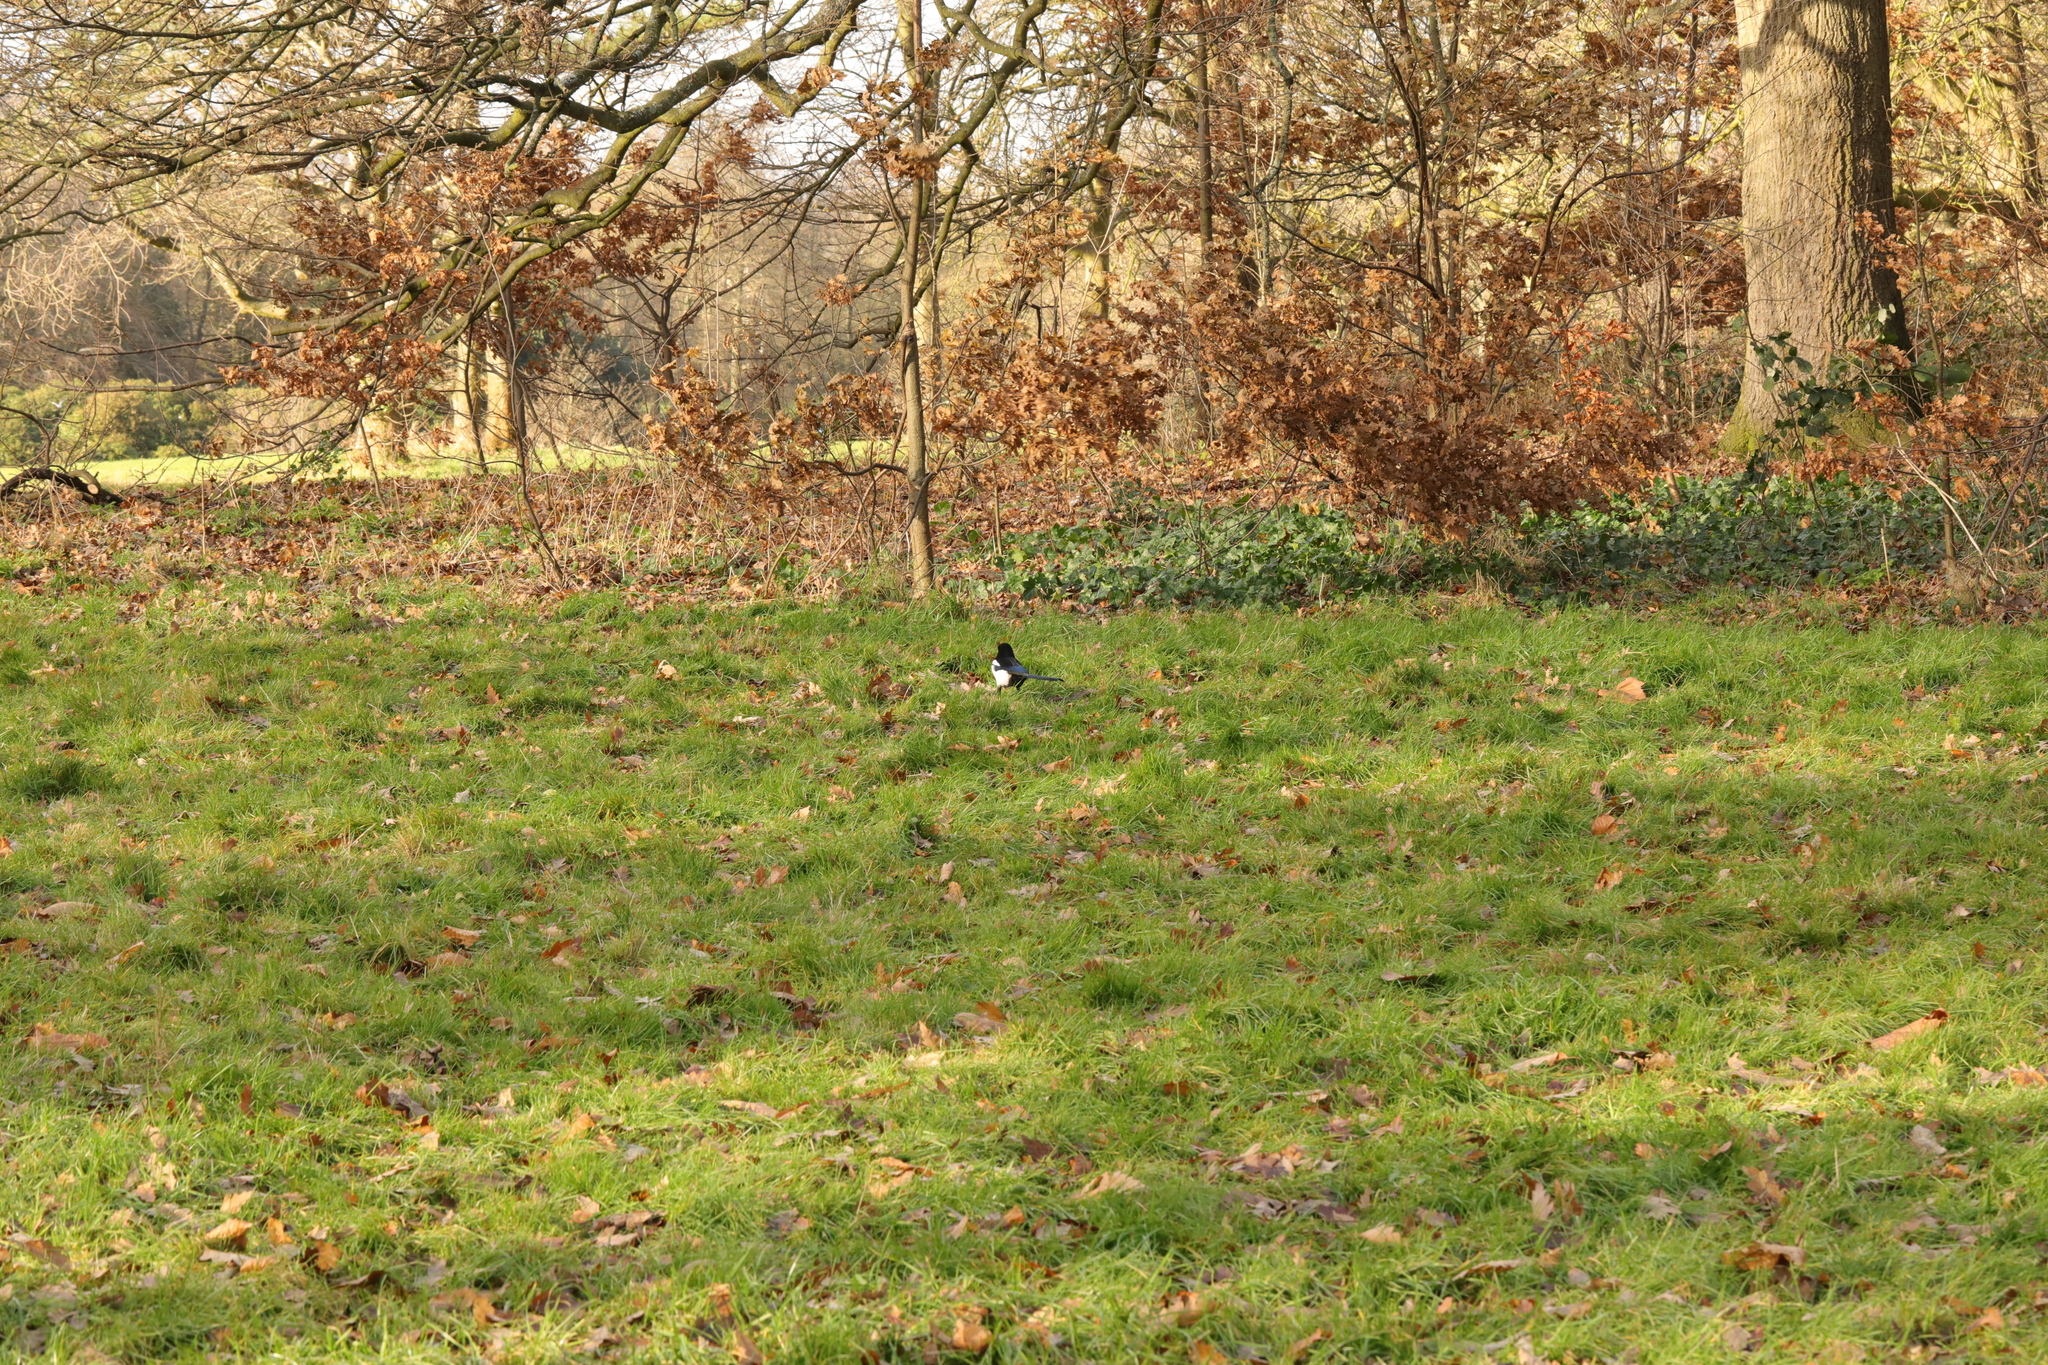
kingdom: Animalia
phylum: Chordata
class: Aves
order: Passeriformes
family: Corvidae
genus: Pica
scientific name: Pica pica
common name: Eurasian magpie
